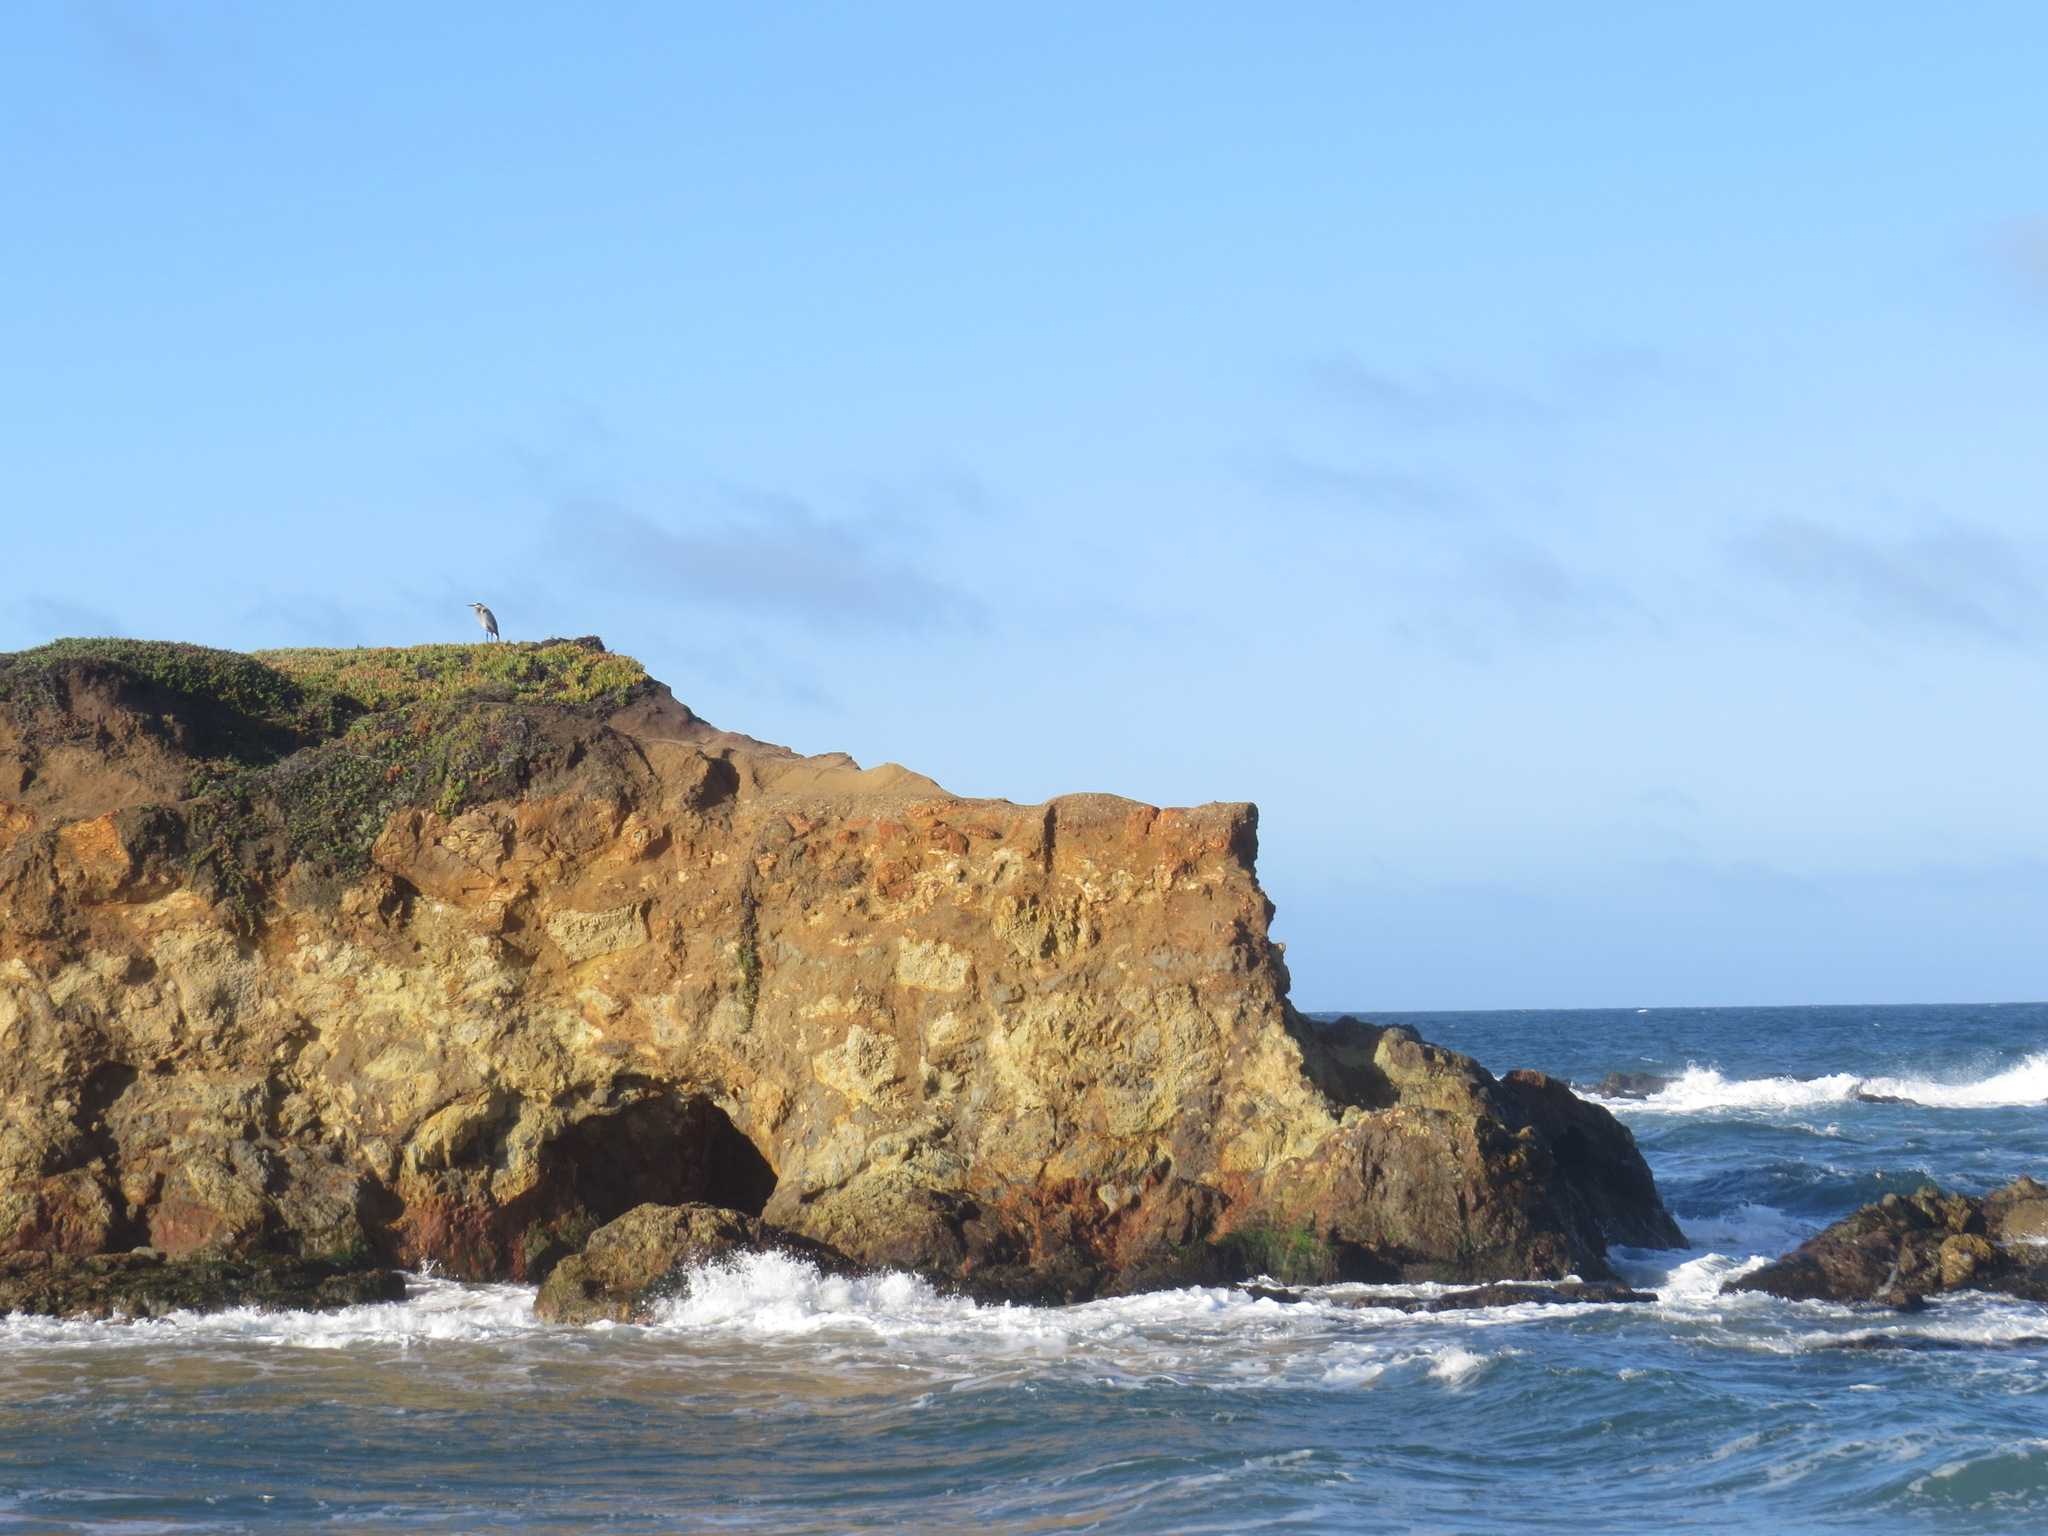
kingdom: Animalia
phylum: Chordata
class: Aves
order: Pelecaniformes
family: Ardeidae
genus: Ardea
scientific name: Ardea herodias
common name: Great blue heron
